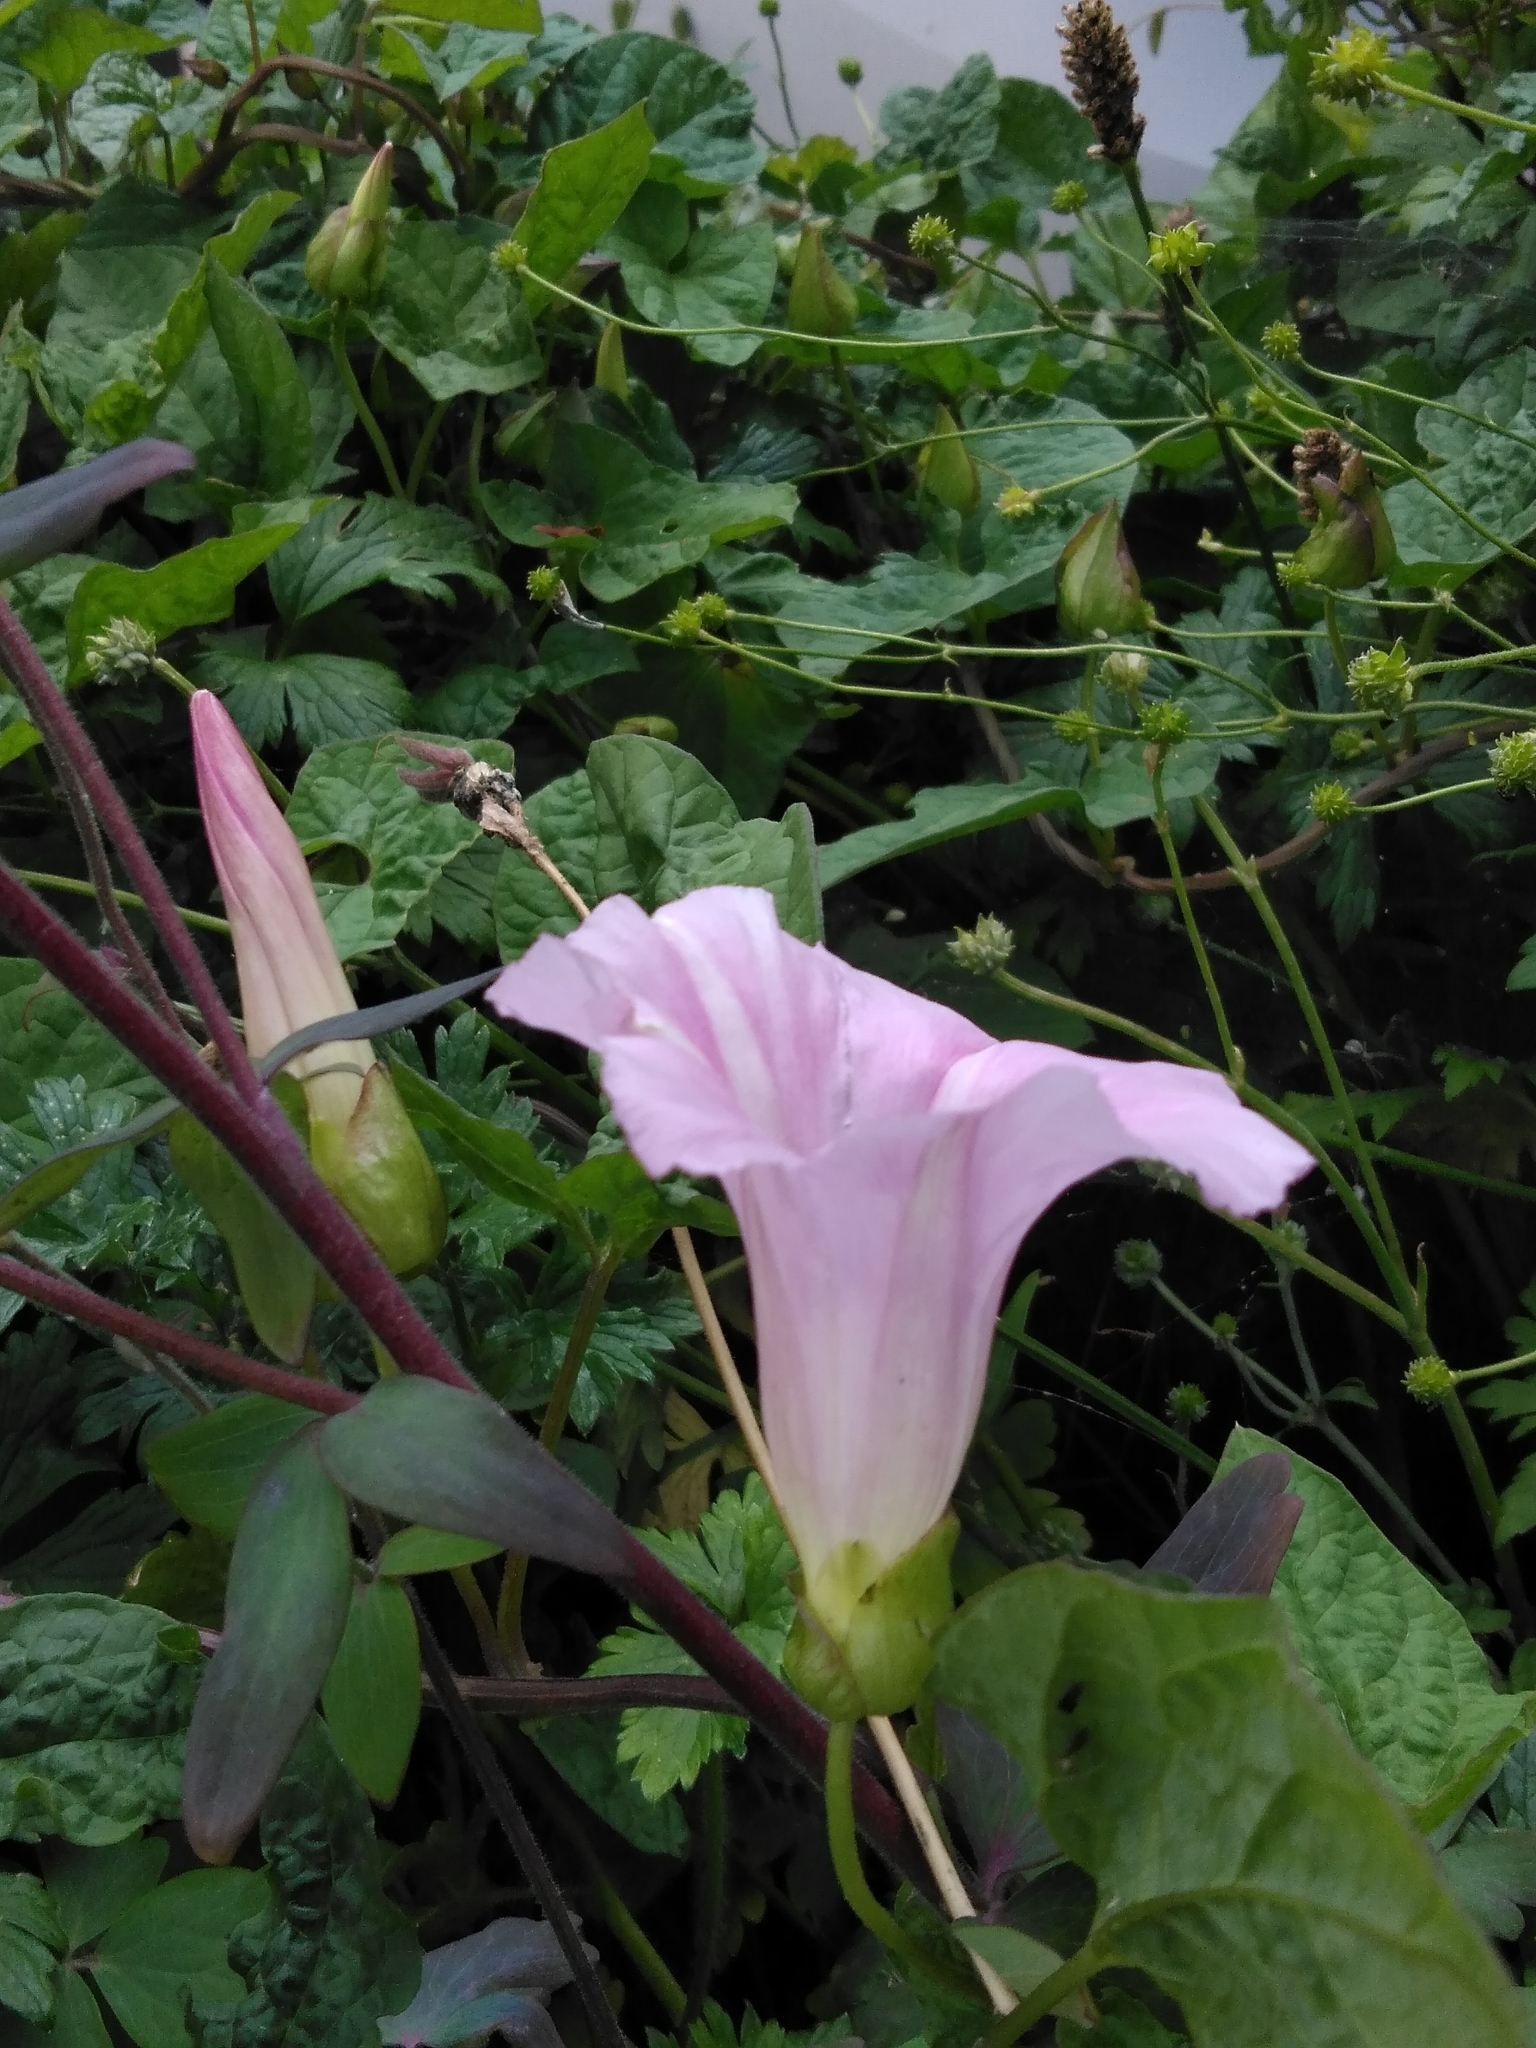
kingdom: Plantae
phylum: Tracheophyta
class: Magnoliopsida
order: Solanales
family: Convolvulaceae
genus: Calystegia
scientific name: Calystegia pulchra
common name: Hairy bindweed
